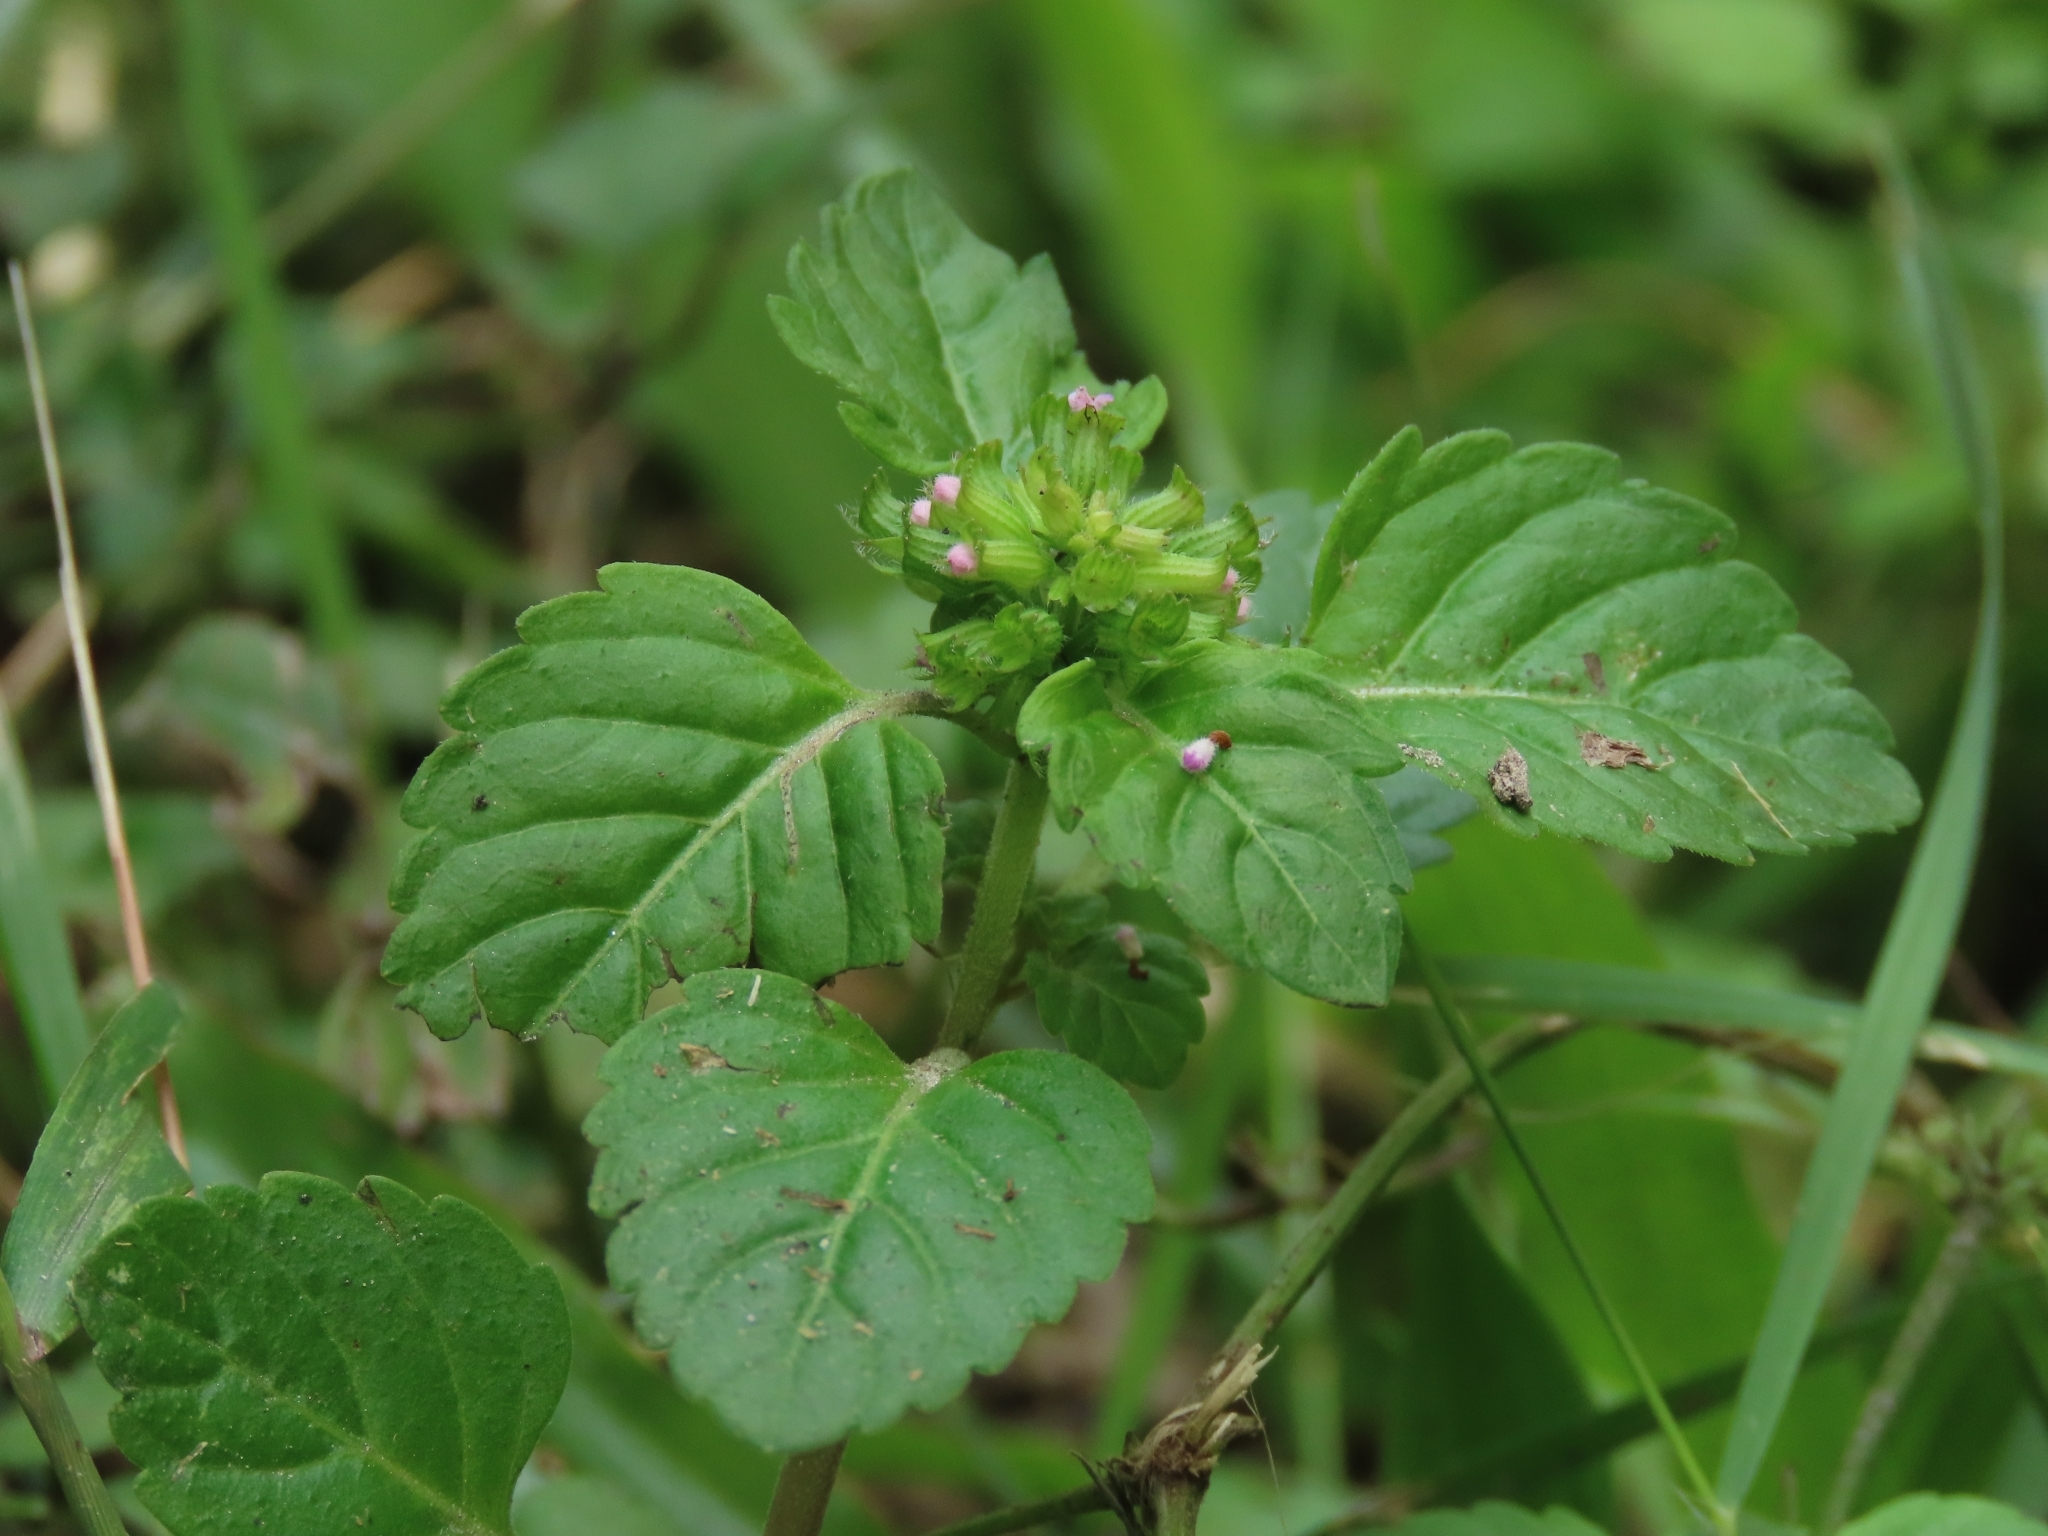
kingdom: Plantae
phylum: Tracheophyta
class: Magnoliopsida
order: Lamiales
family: Lamiaceae
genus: Clinopodium
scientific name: Clinopodium gracile
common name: Slender wild basil
